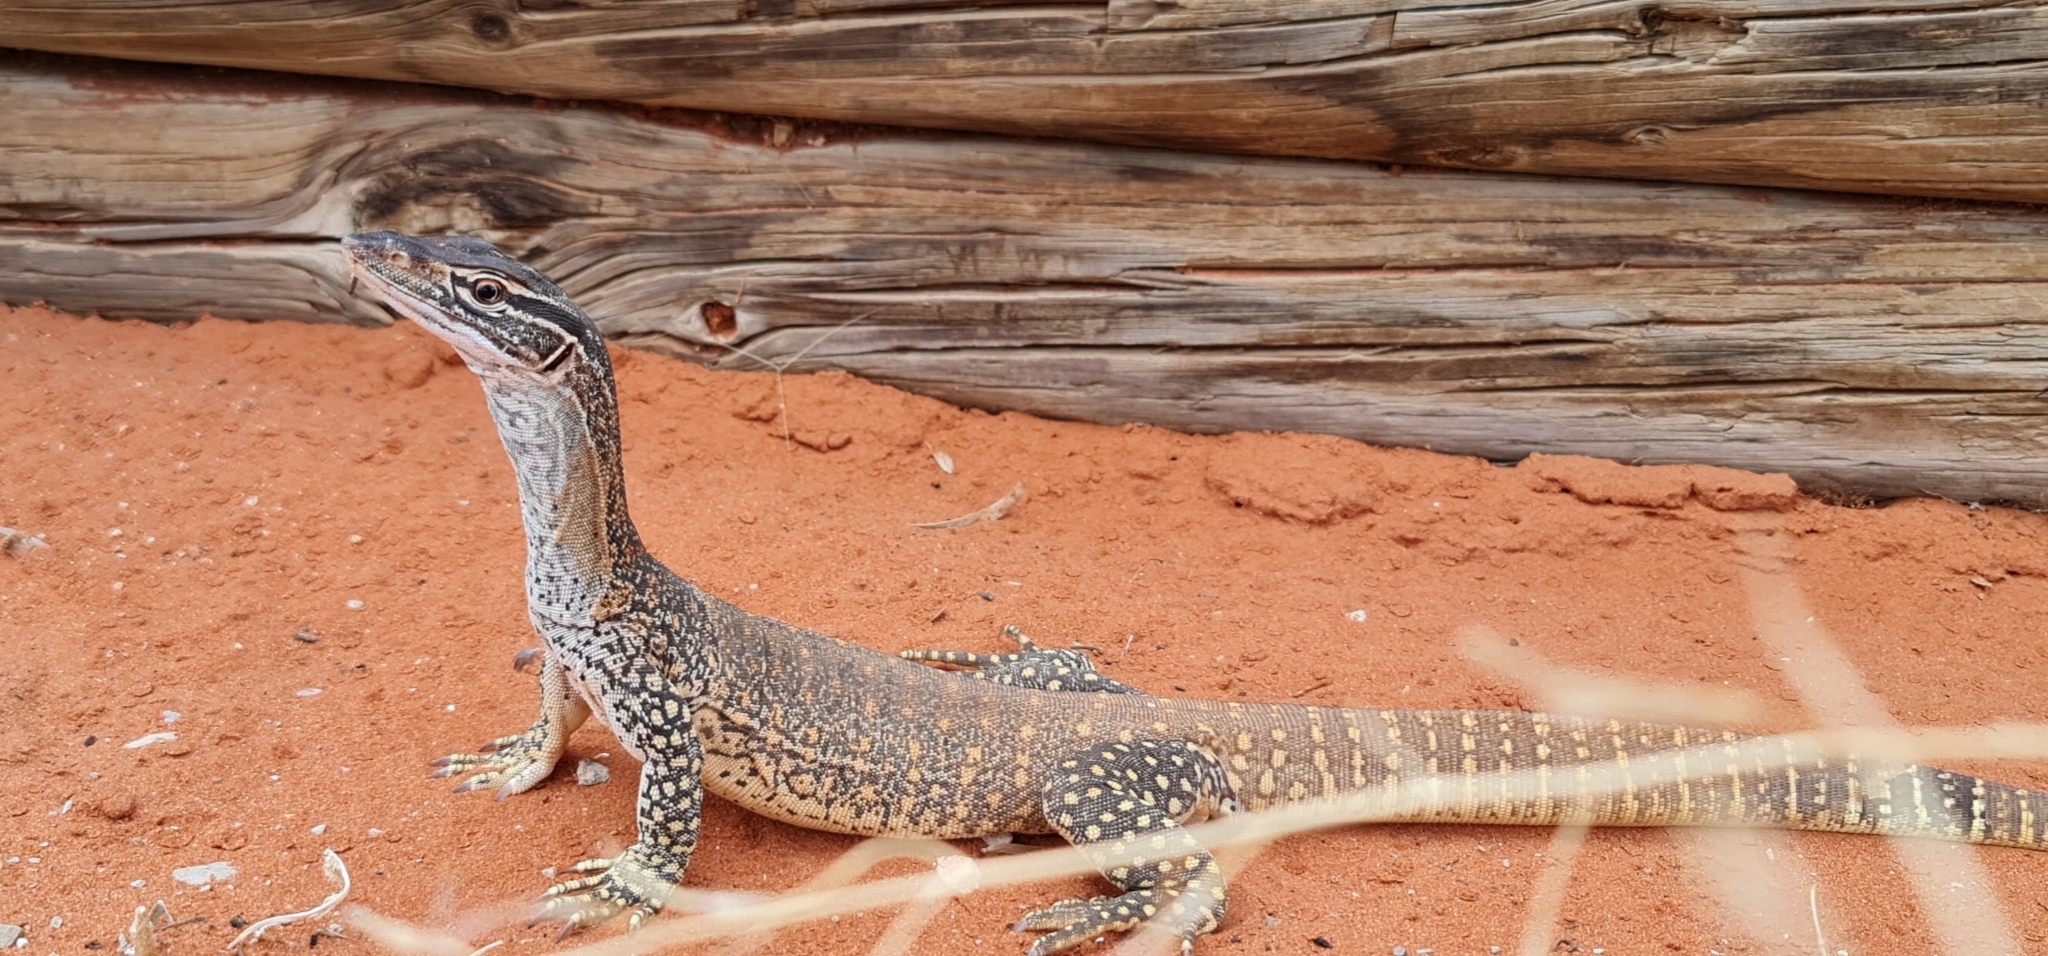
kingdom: Animalia
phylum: Chordata
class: Squamata
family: Varanidae
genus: Varanus
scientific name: Varanus gouldii
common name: Gould's goanna
